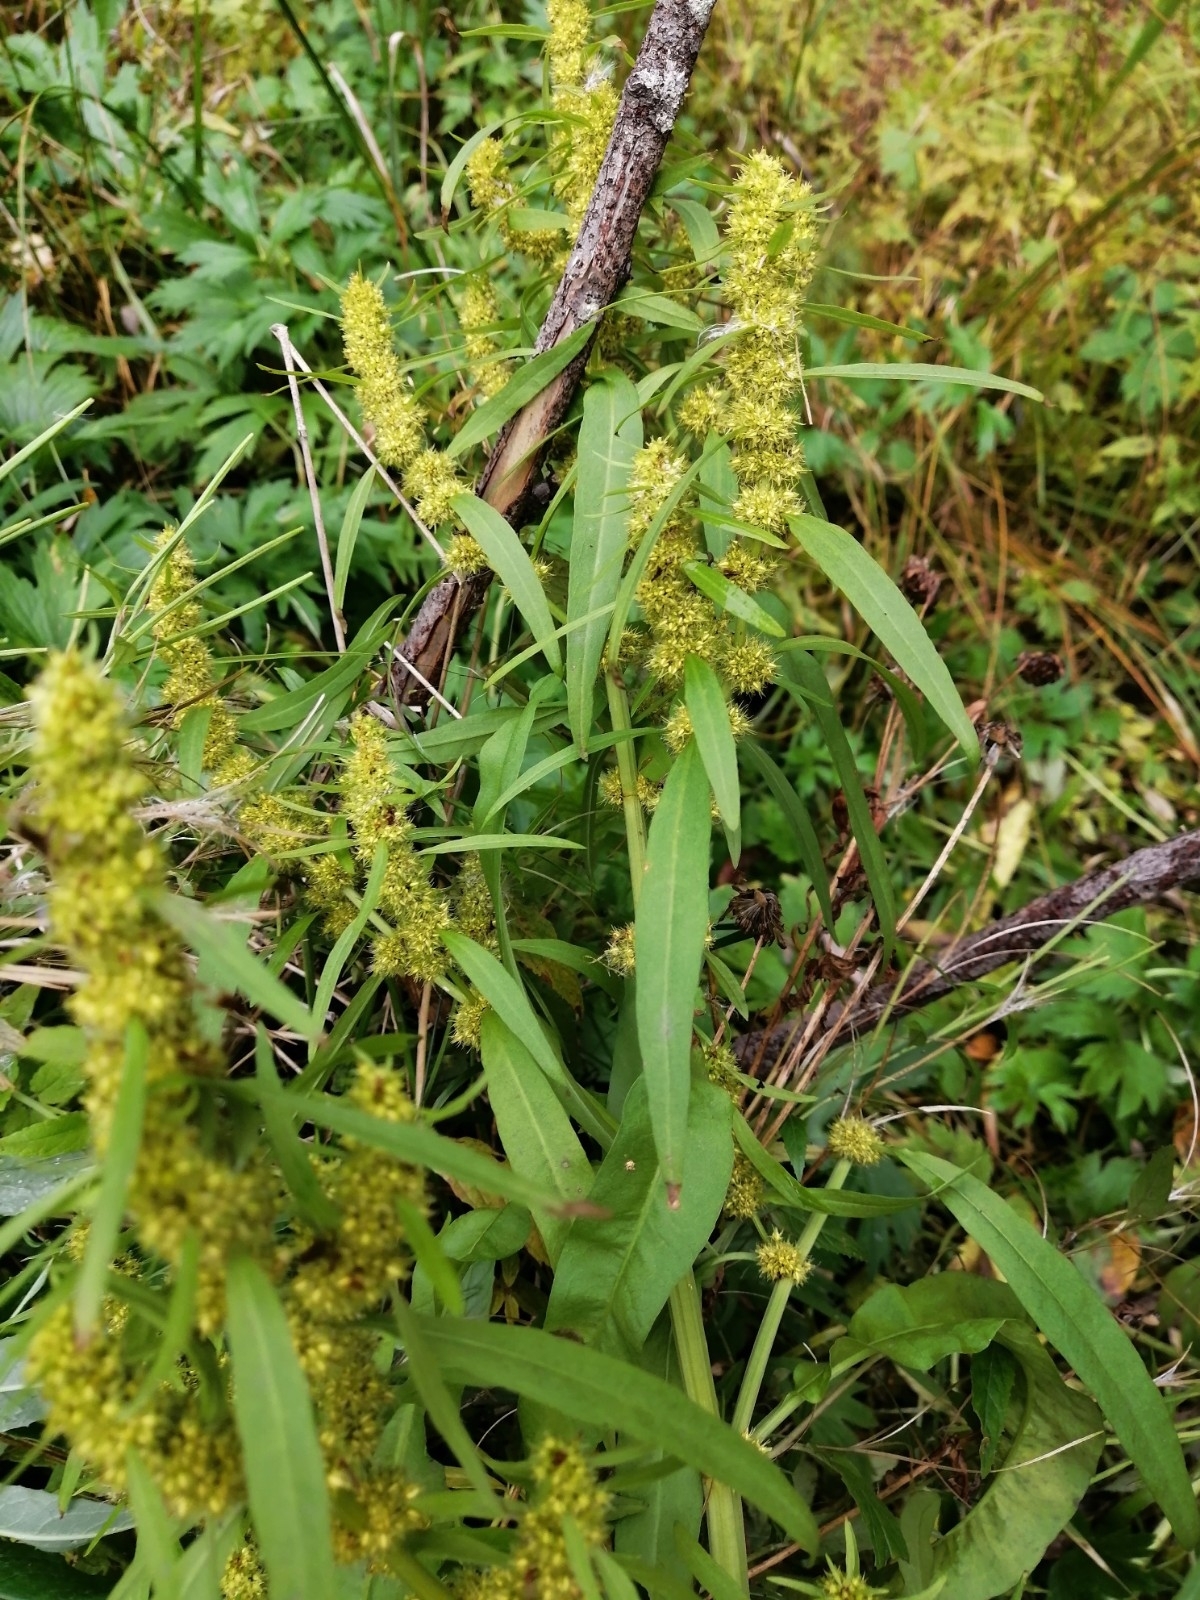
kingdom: Plantae
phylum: Tracheophyta
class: Magnoliopsida
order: Caryophyllales
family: Polygonaceae
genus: Rumex
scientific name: Rumex maritimus
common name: Golden dock
